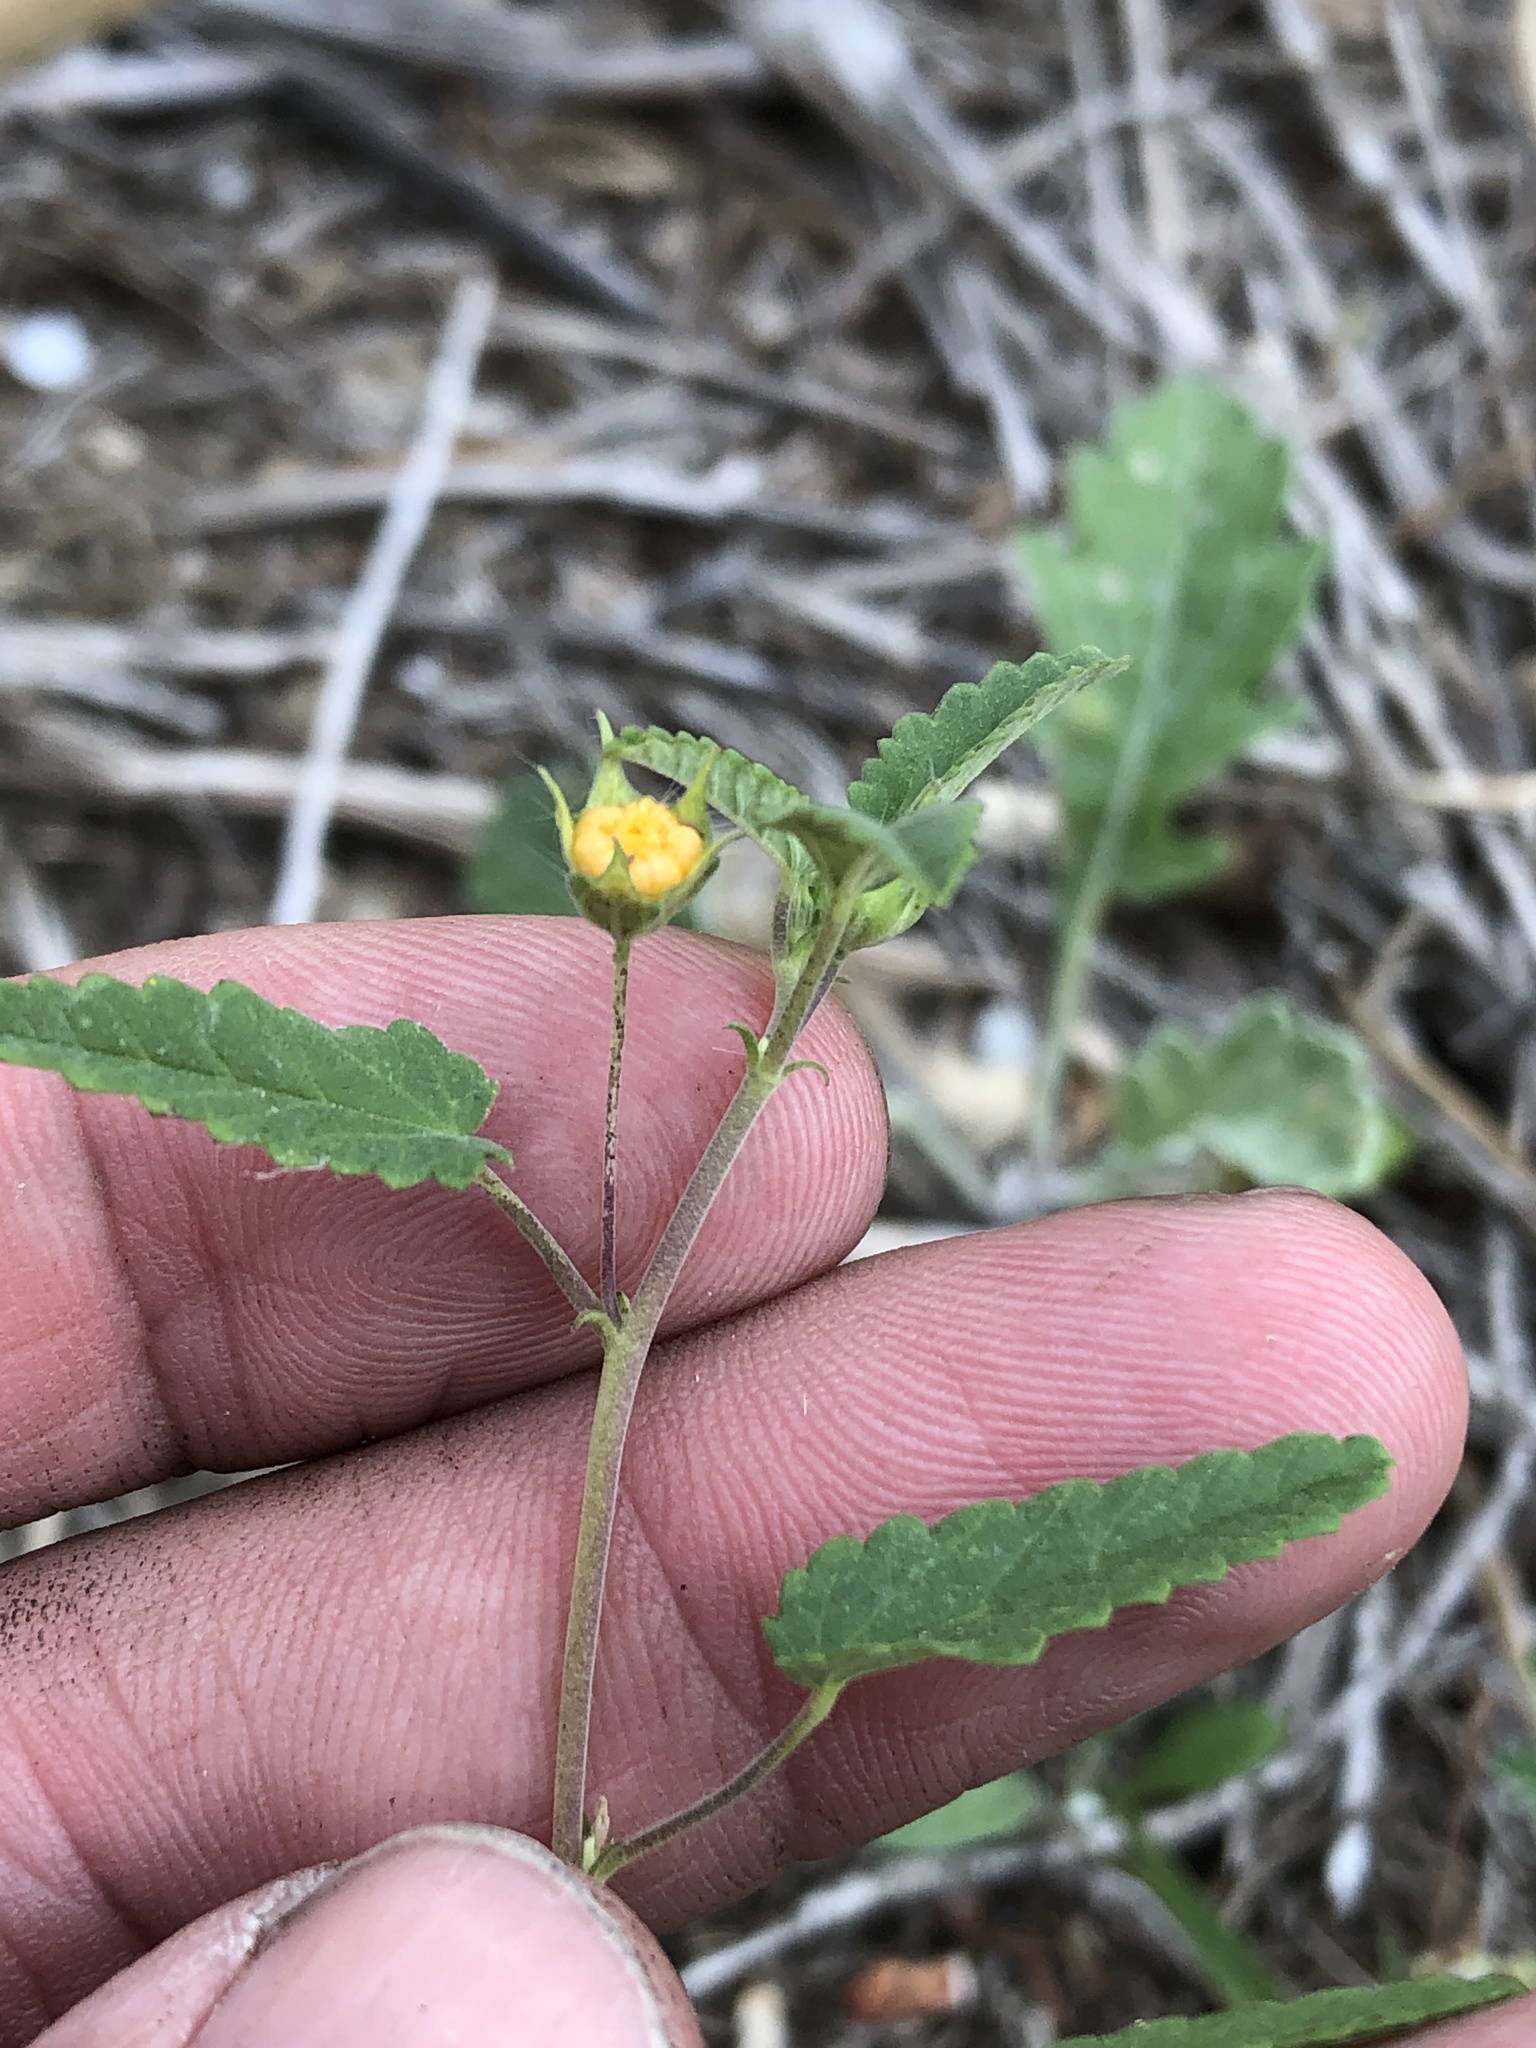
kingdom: Plantae
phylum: Tracheophyta
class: Magnoliopsida
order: Malvales
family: Malvaceae
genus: Sida
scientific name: Sida abutilifolia
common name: Spreading fanpetals
